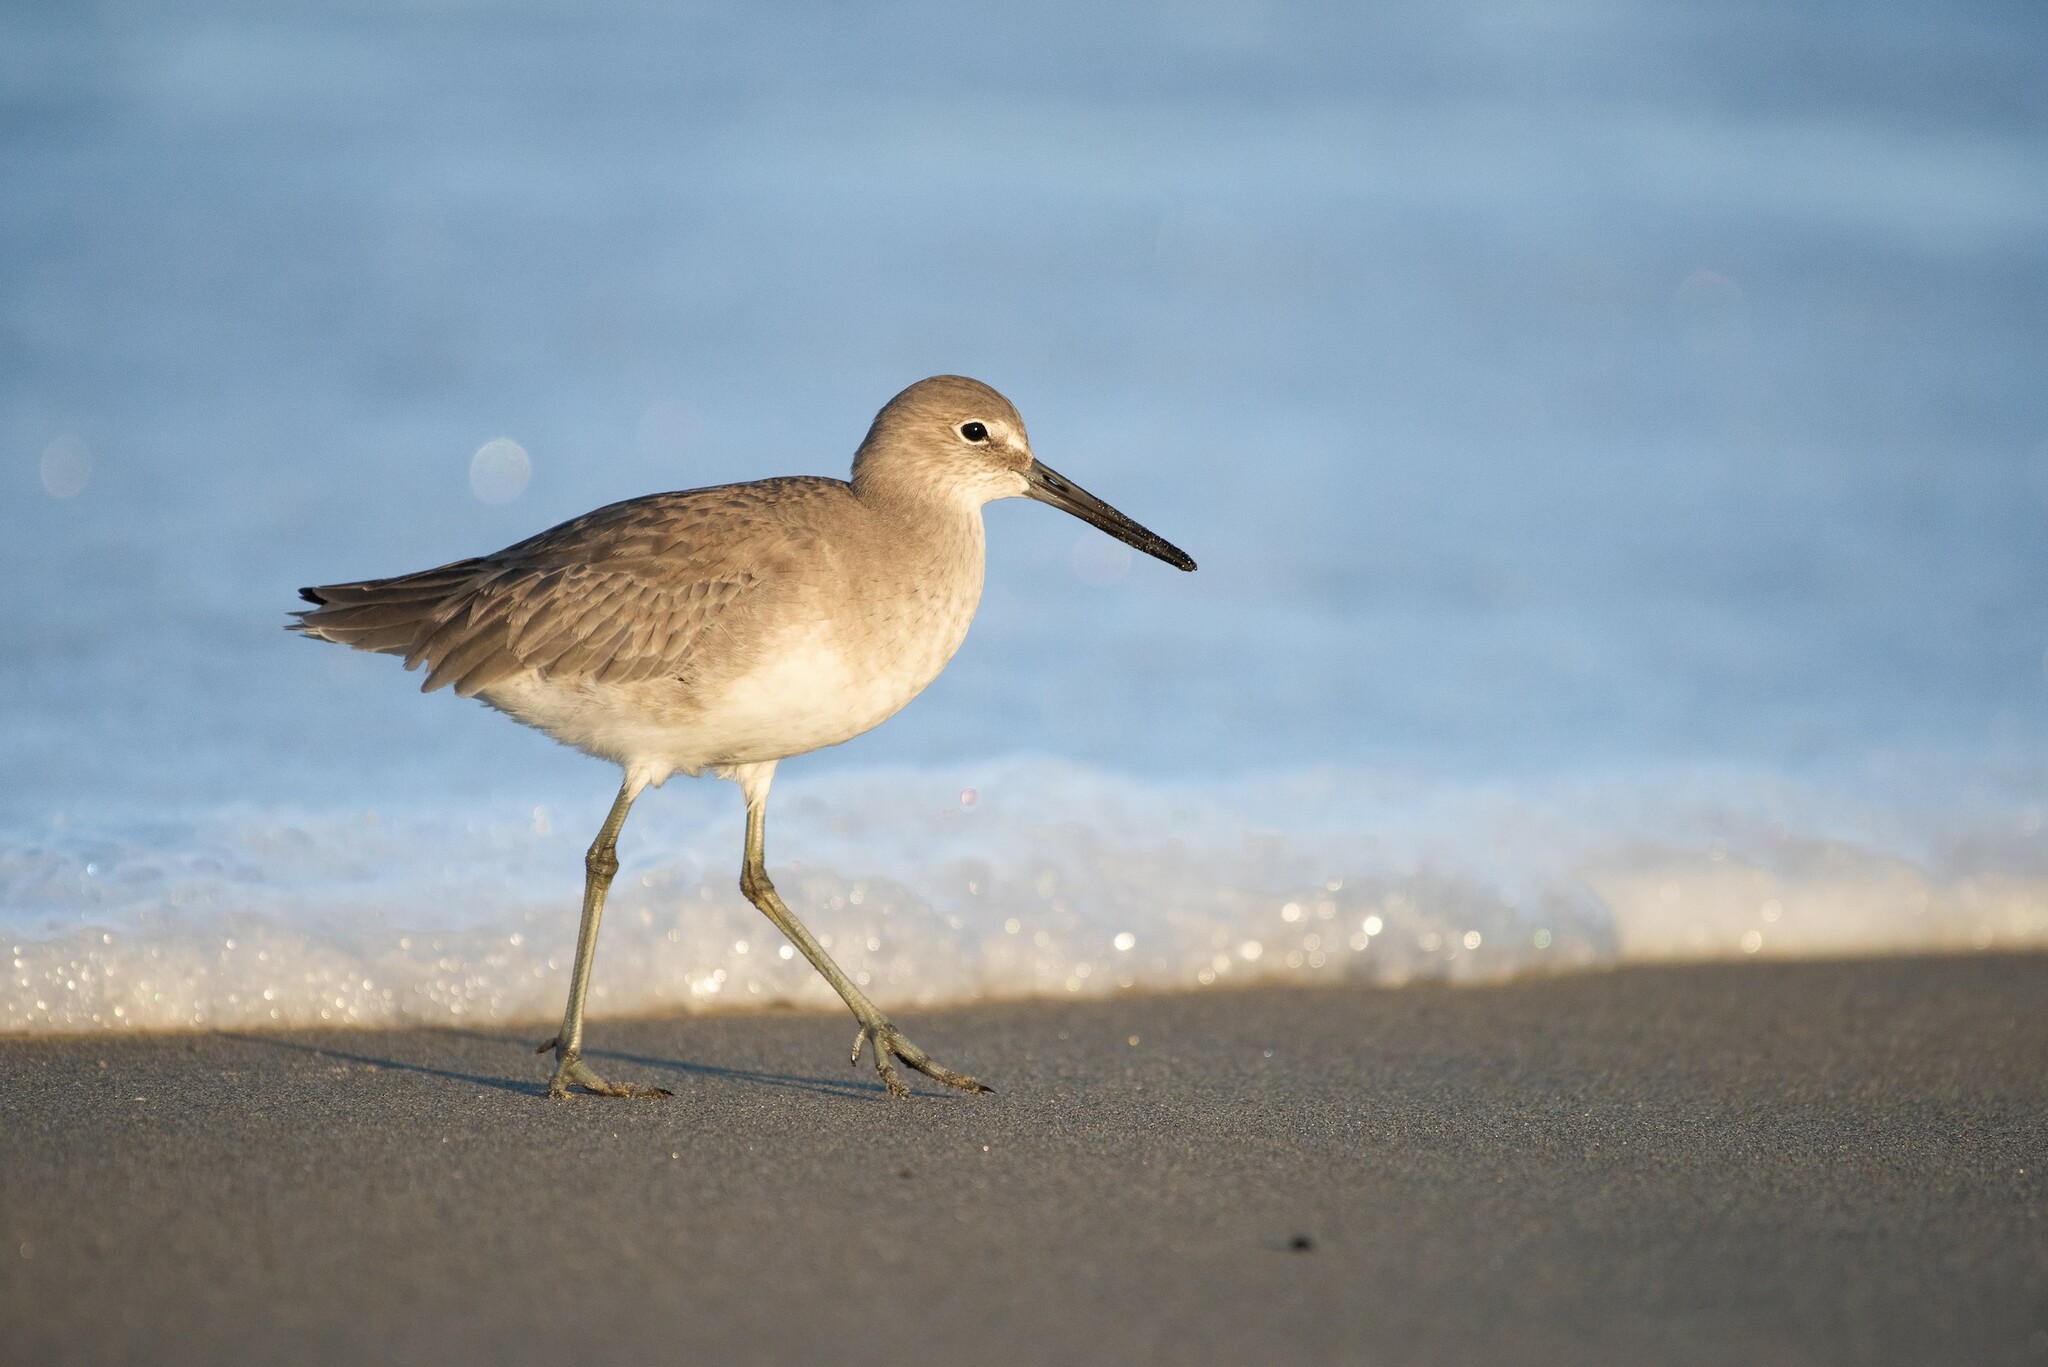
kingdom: Animalia
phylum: Chordata
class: Aves
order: Charadriiformes
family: Scolopacidae
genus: Tringa
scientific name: Tringa semipalmata
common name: Willet
